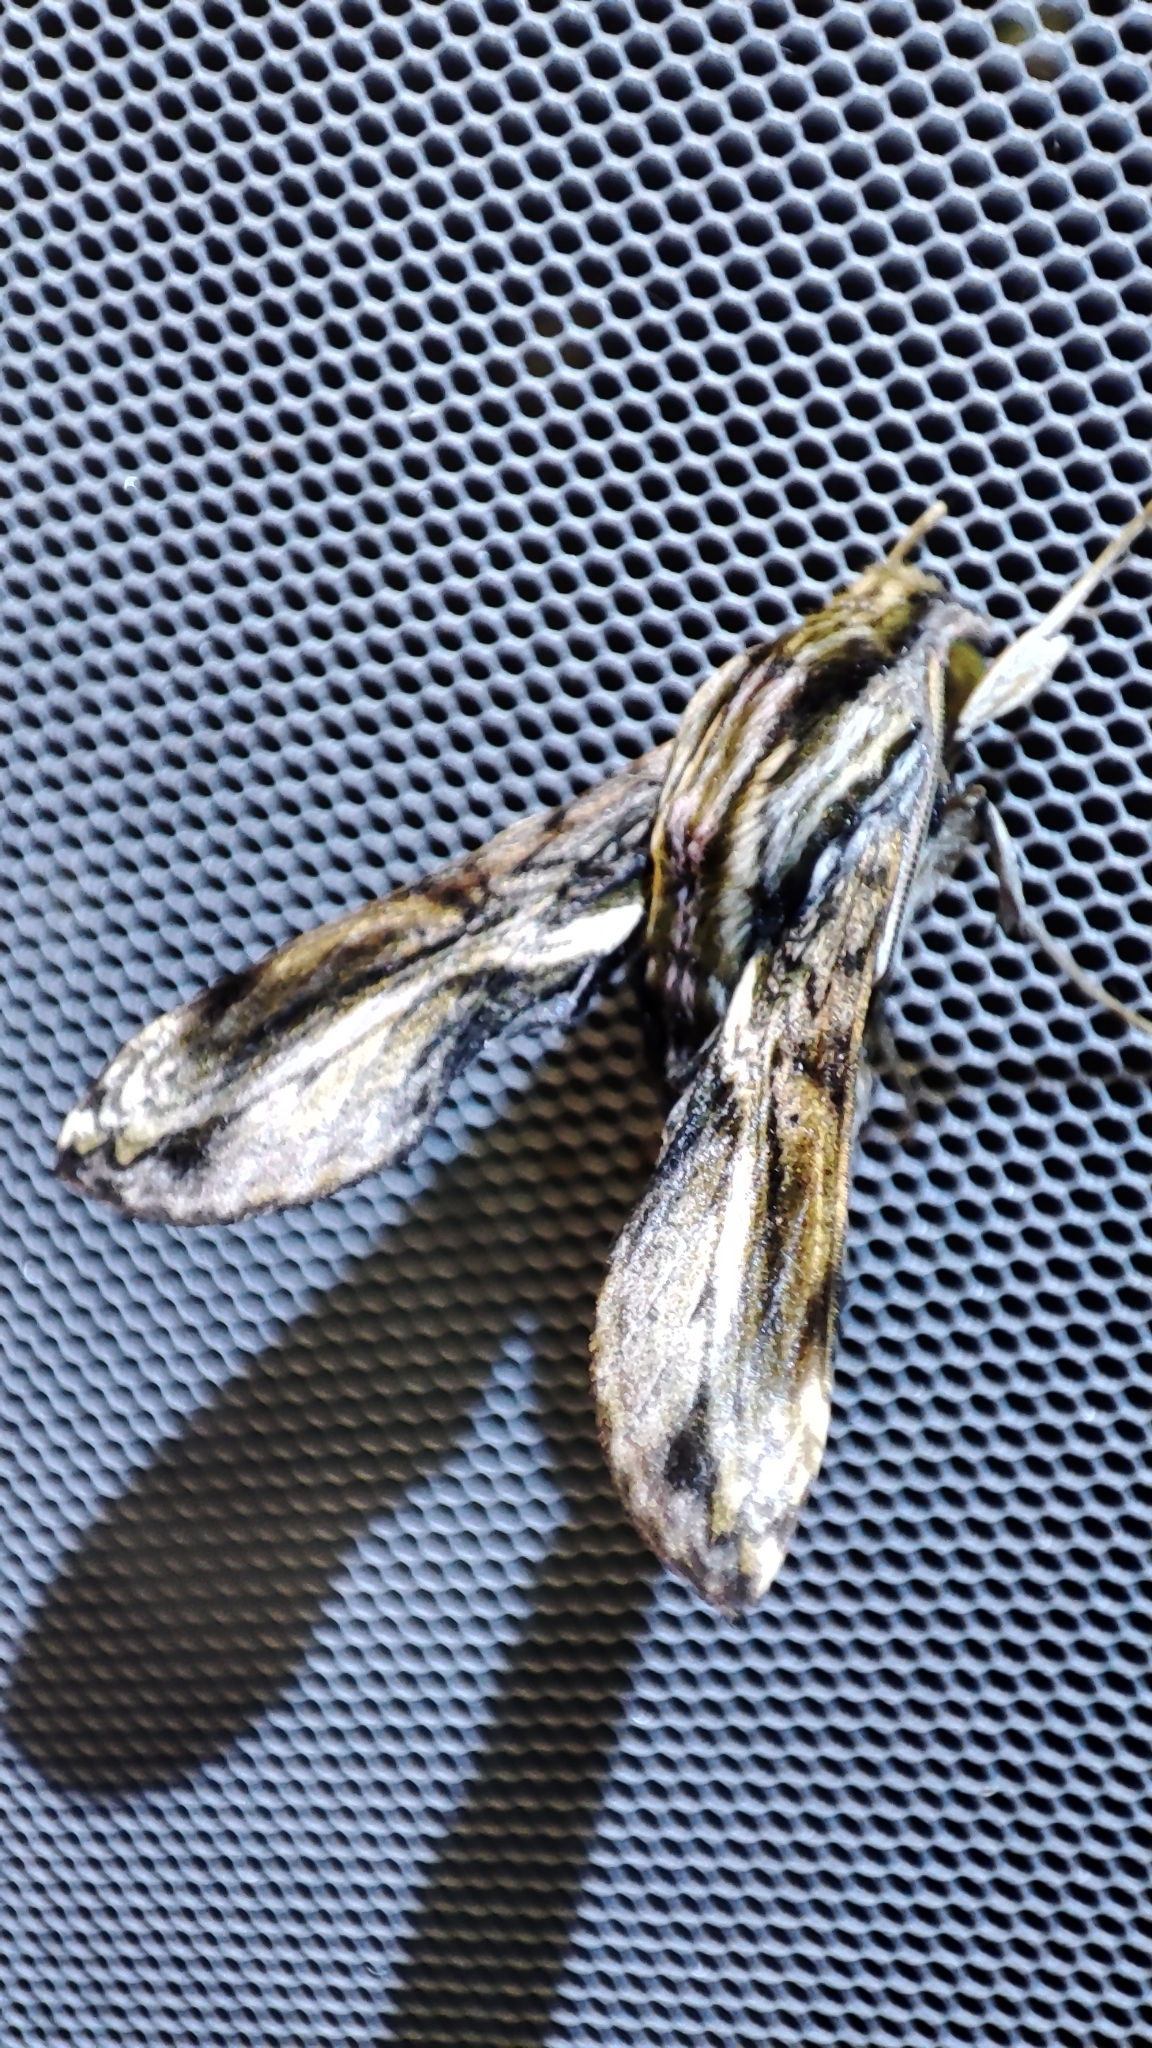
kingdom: Animalia
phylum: Arthropoda
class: Insecta
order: Lepidoptera
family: Sphingidae
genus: Theretra
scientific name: Theretra orpheus
